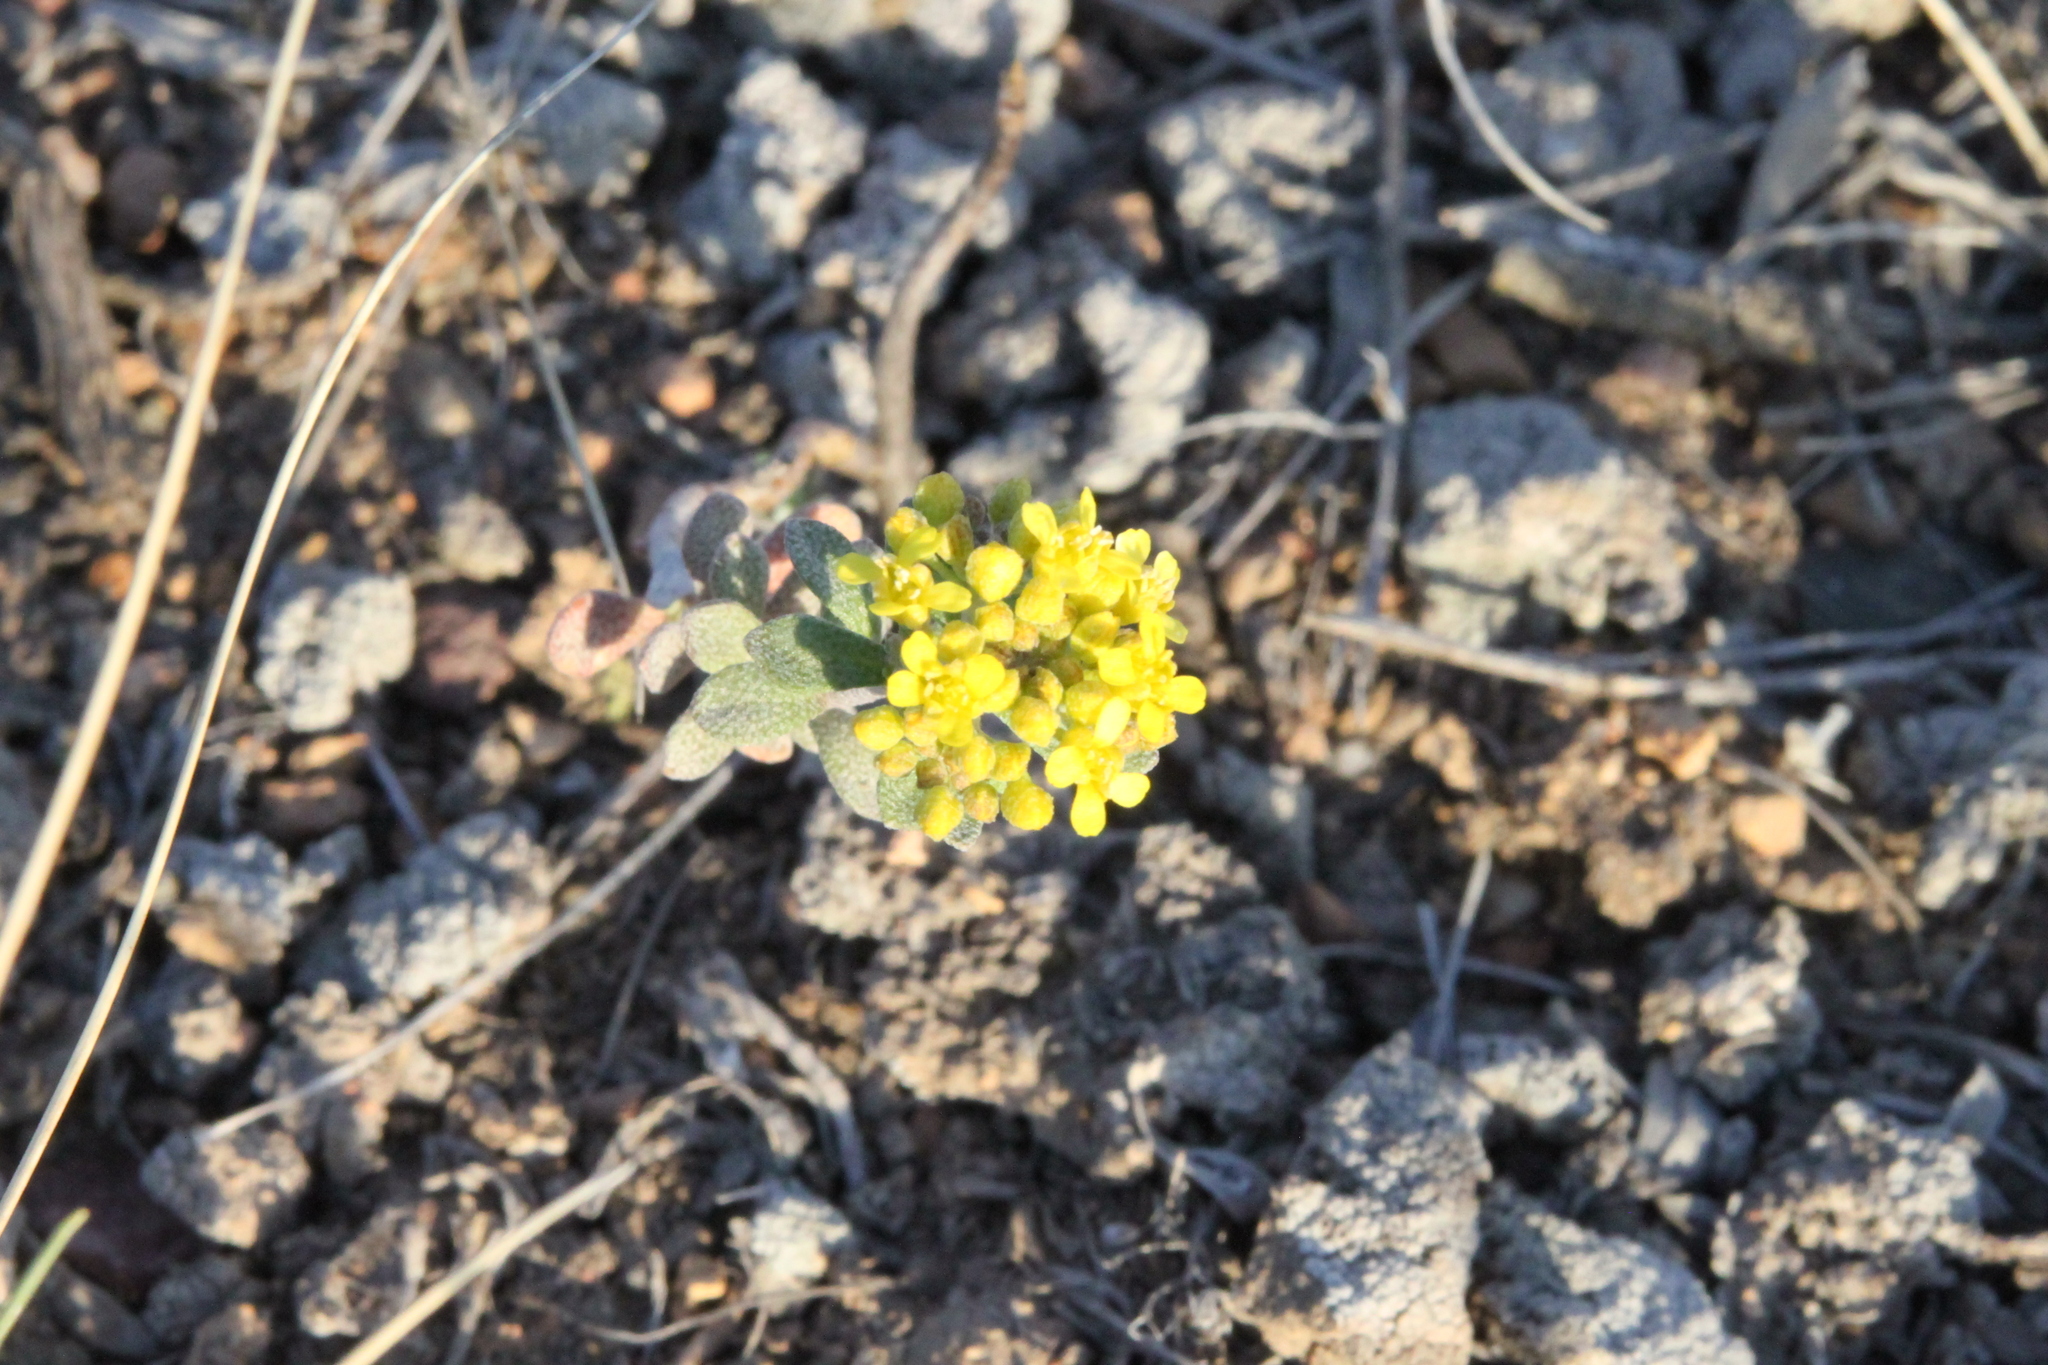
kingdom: Plantae
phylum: Tracheophyta
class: Magnoliopsida
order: Brassicales
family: Brassicaceae
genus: Odontarrhena
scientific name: Odontarrhena tortuosa
